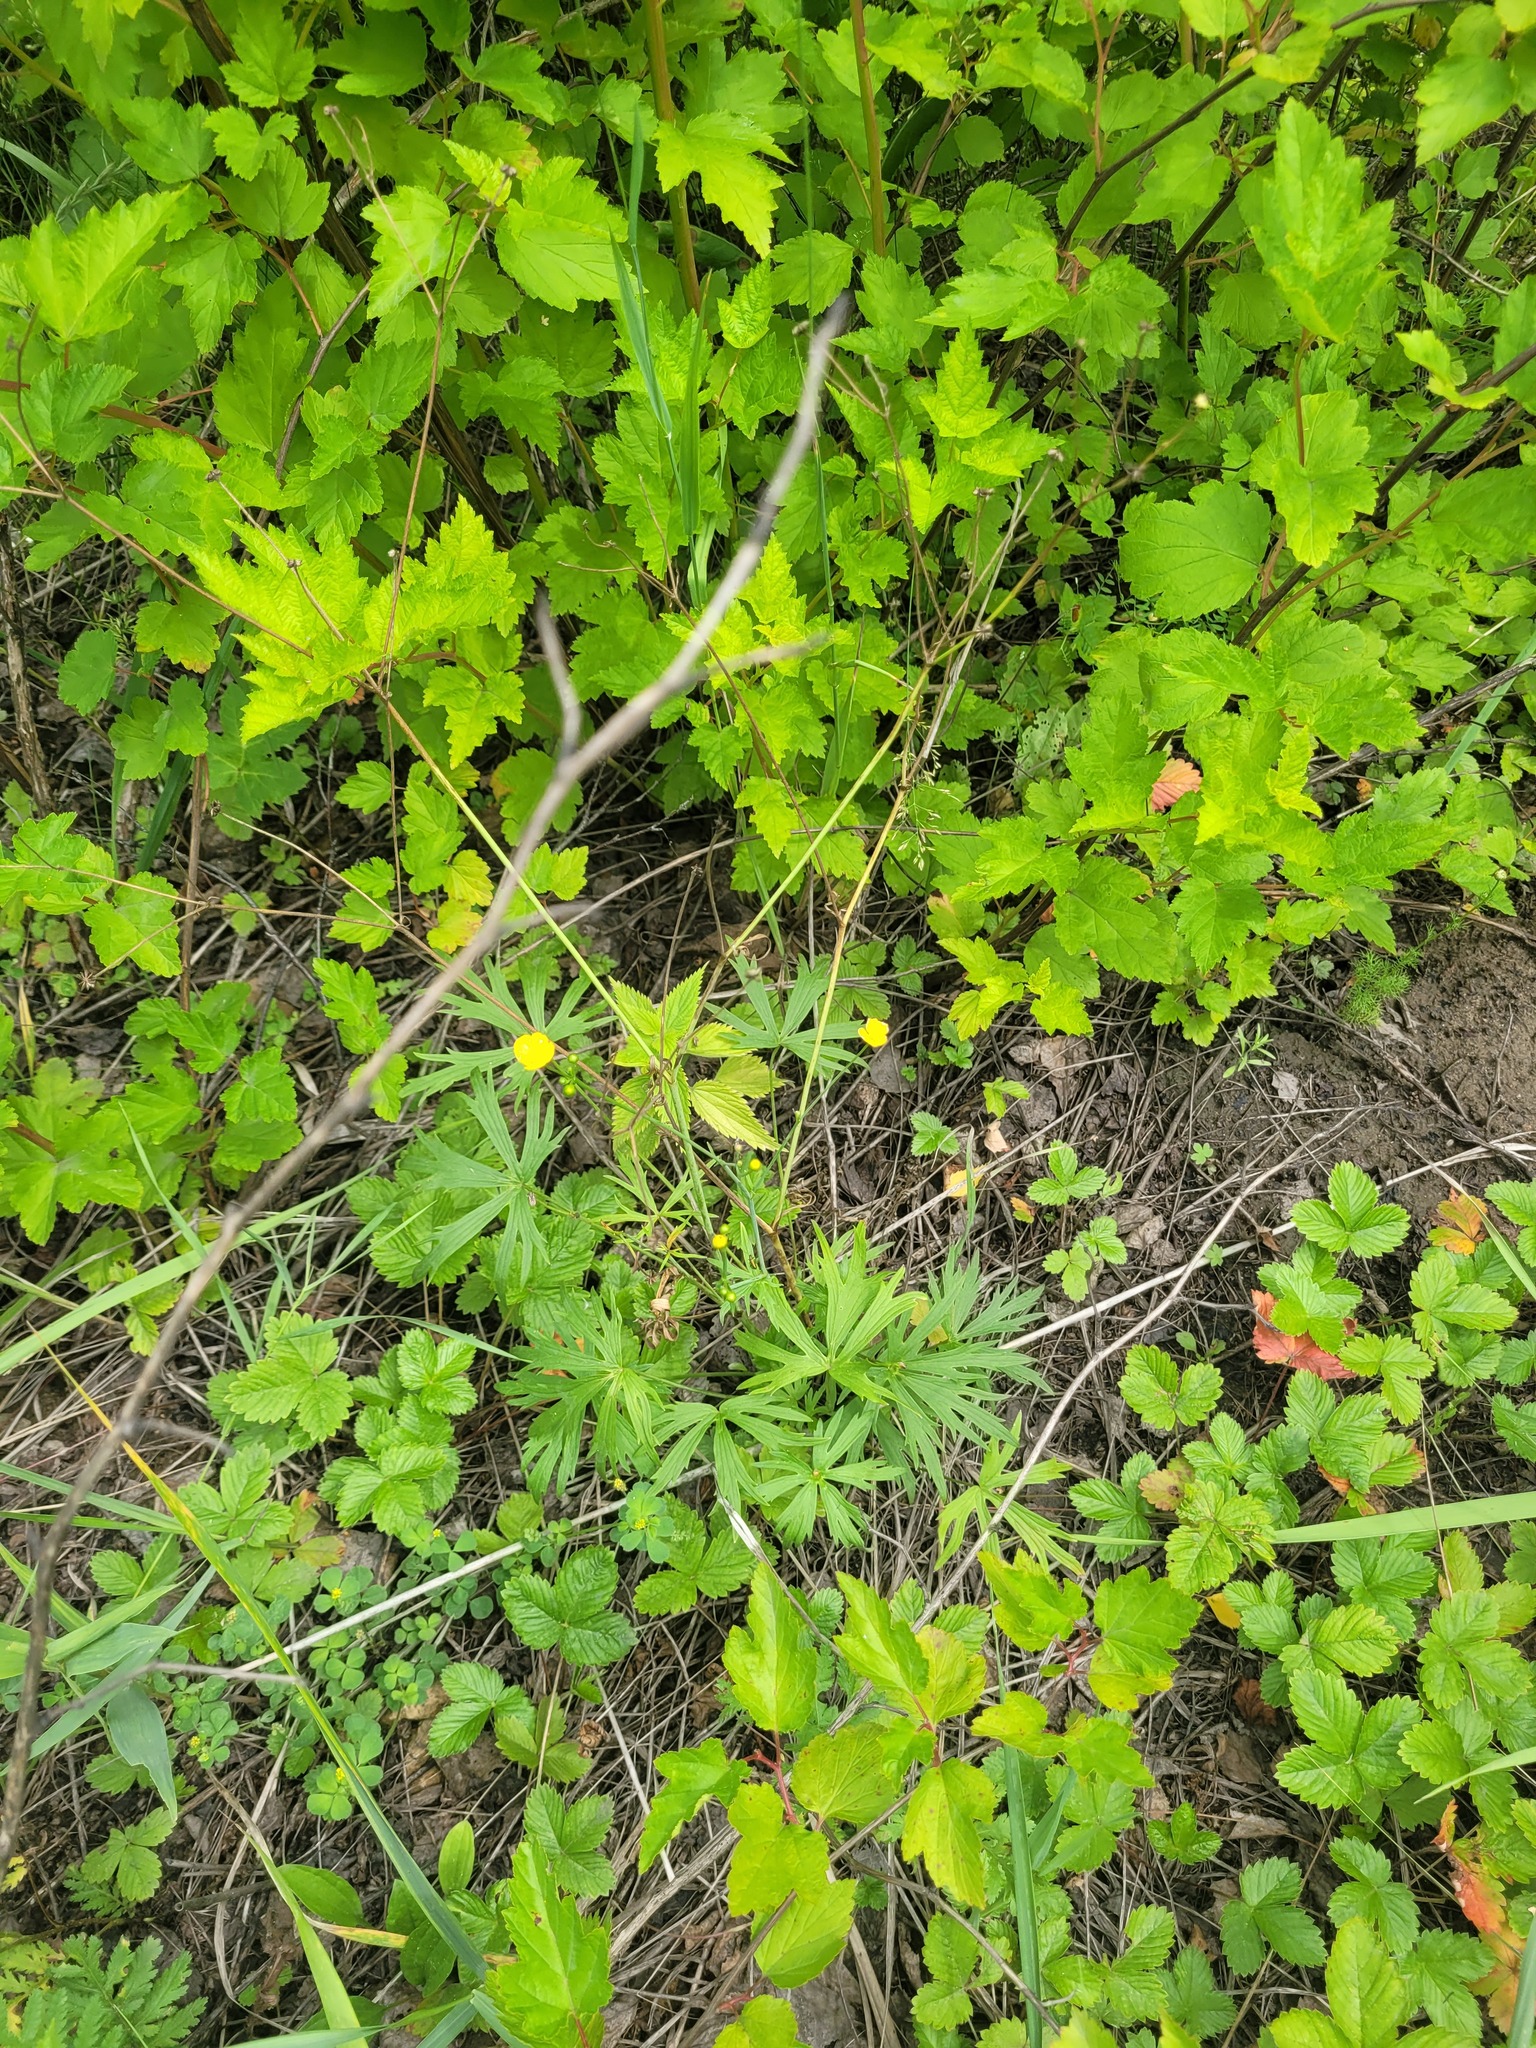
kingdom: Plantae
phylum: Tracheophyta
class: Magnoliopsida
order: Ranunculales
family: Ranunculaceae
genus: Ranunculus
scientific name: Ranunculus acris
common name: Meadow buttercup
